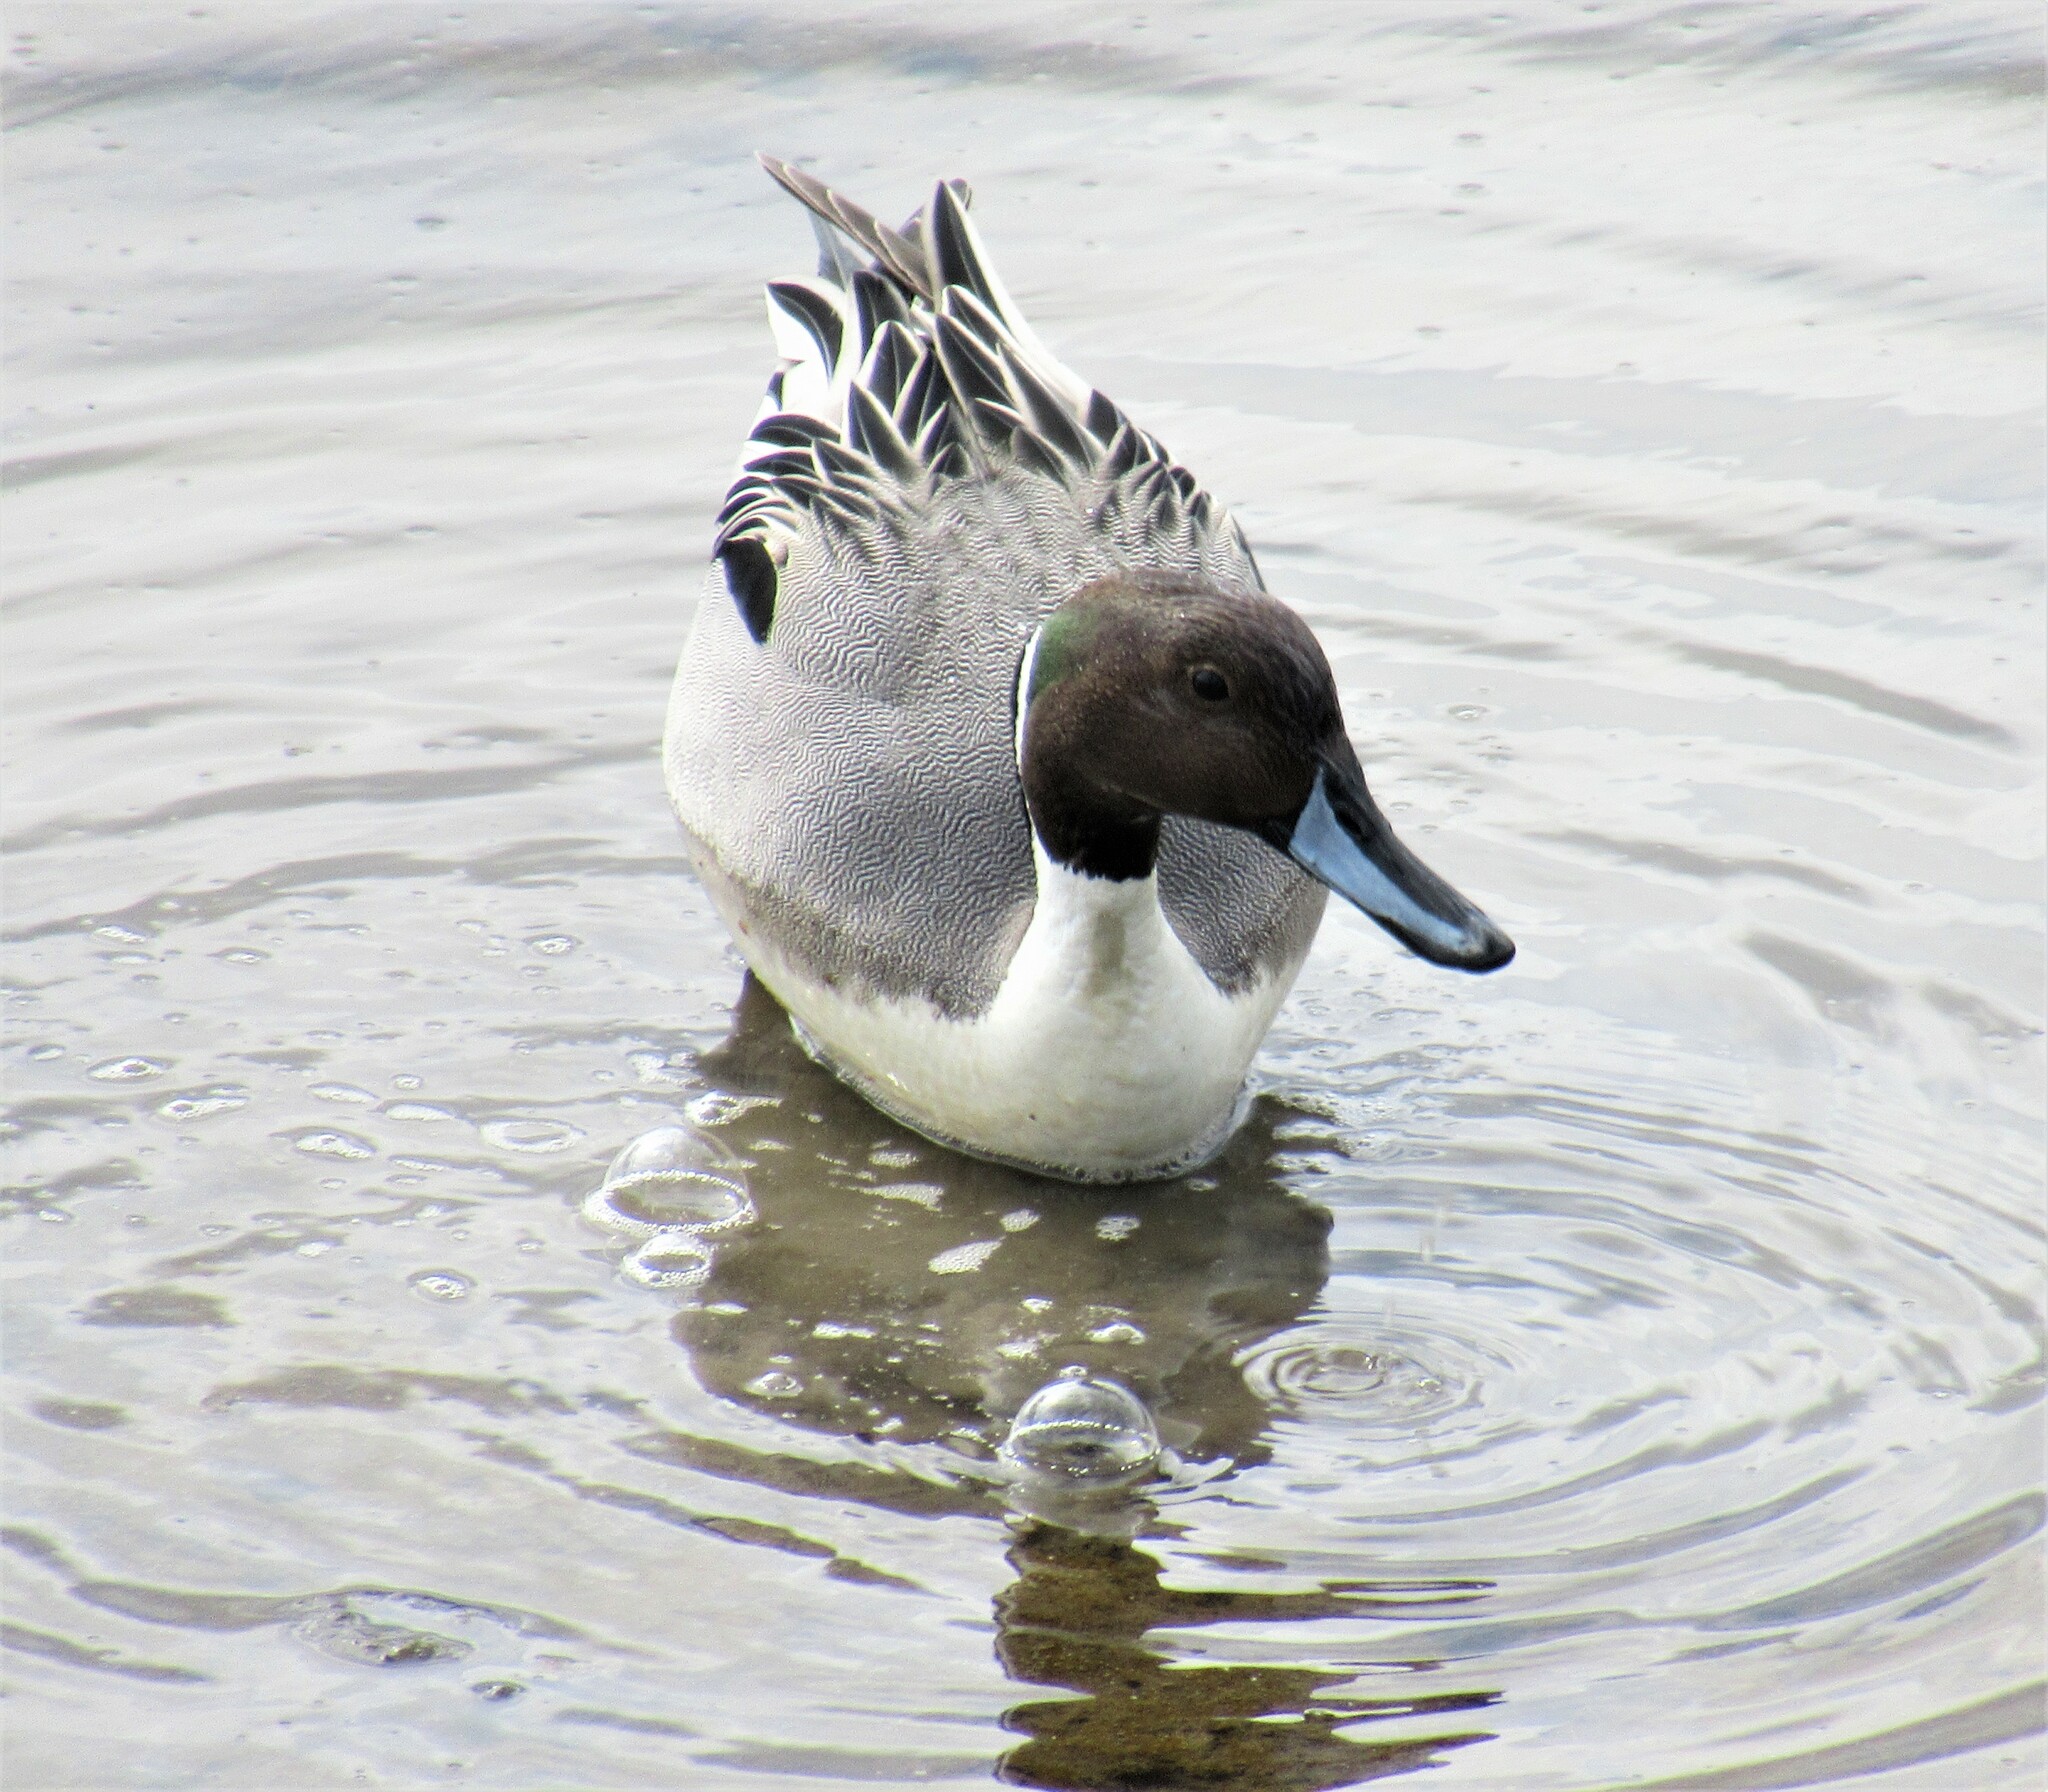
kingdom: Animalia
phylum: Chordata
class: Aves
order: Anseriformes
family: Anatidae
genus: Anas
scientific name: Anas acuta
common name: Northern pintail
